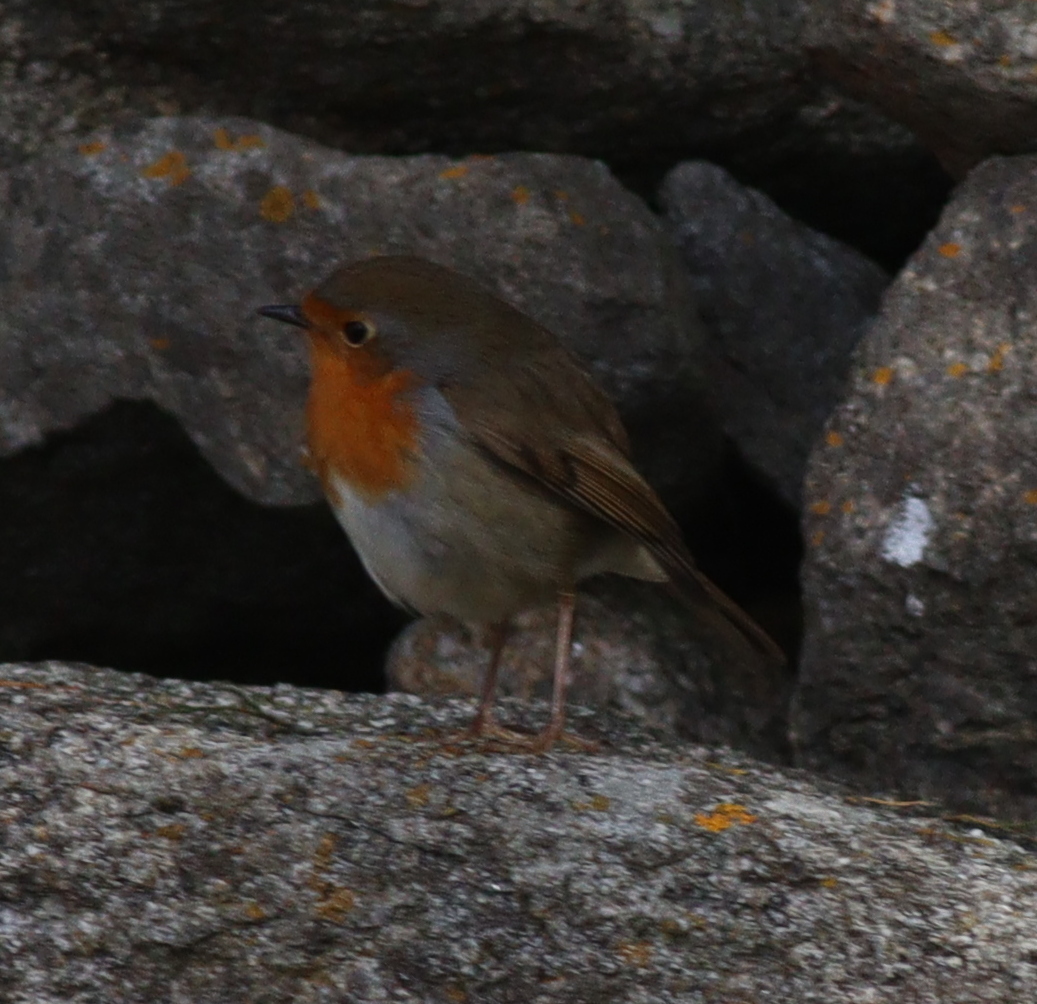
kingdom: Animalia
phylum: Chordata
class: Aves
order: Passeriformes
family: Muscicapidae
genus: Erithacus
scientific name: Erithacus rubecula
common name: European robin
